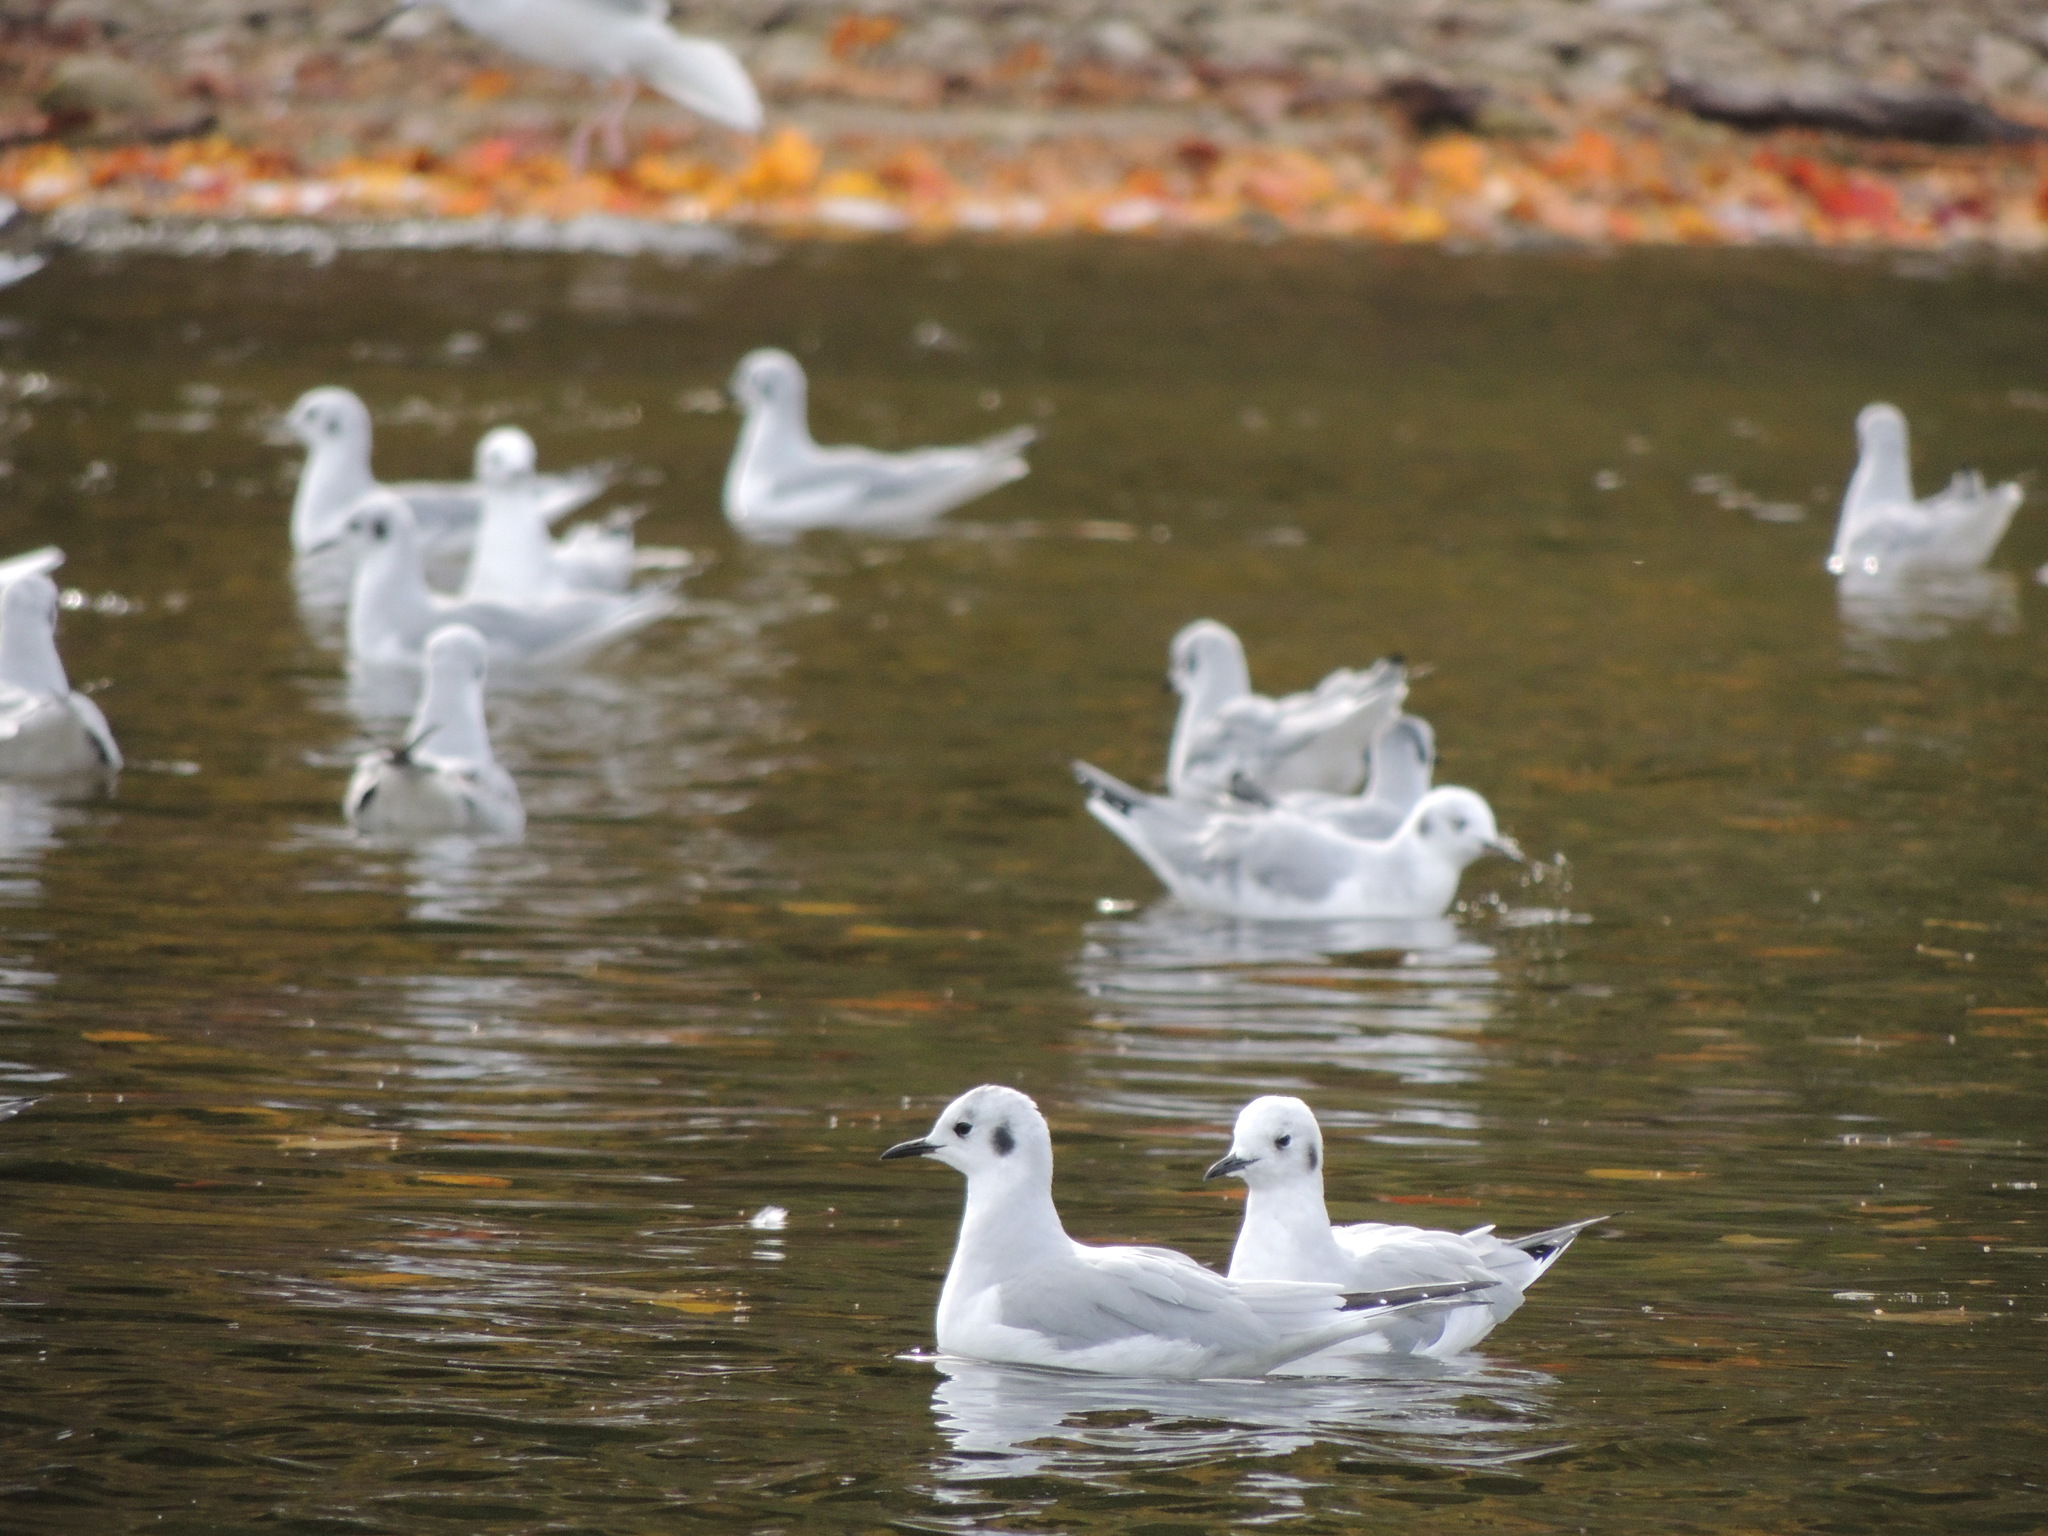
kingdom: Animalia
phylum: Chordata
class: Aves
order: Charadriiformes
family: Laridae
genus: Chroicocephalus
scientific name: Chroicocephalus philadelphia
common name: Bonaparte's gull
